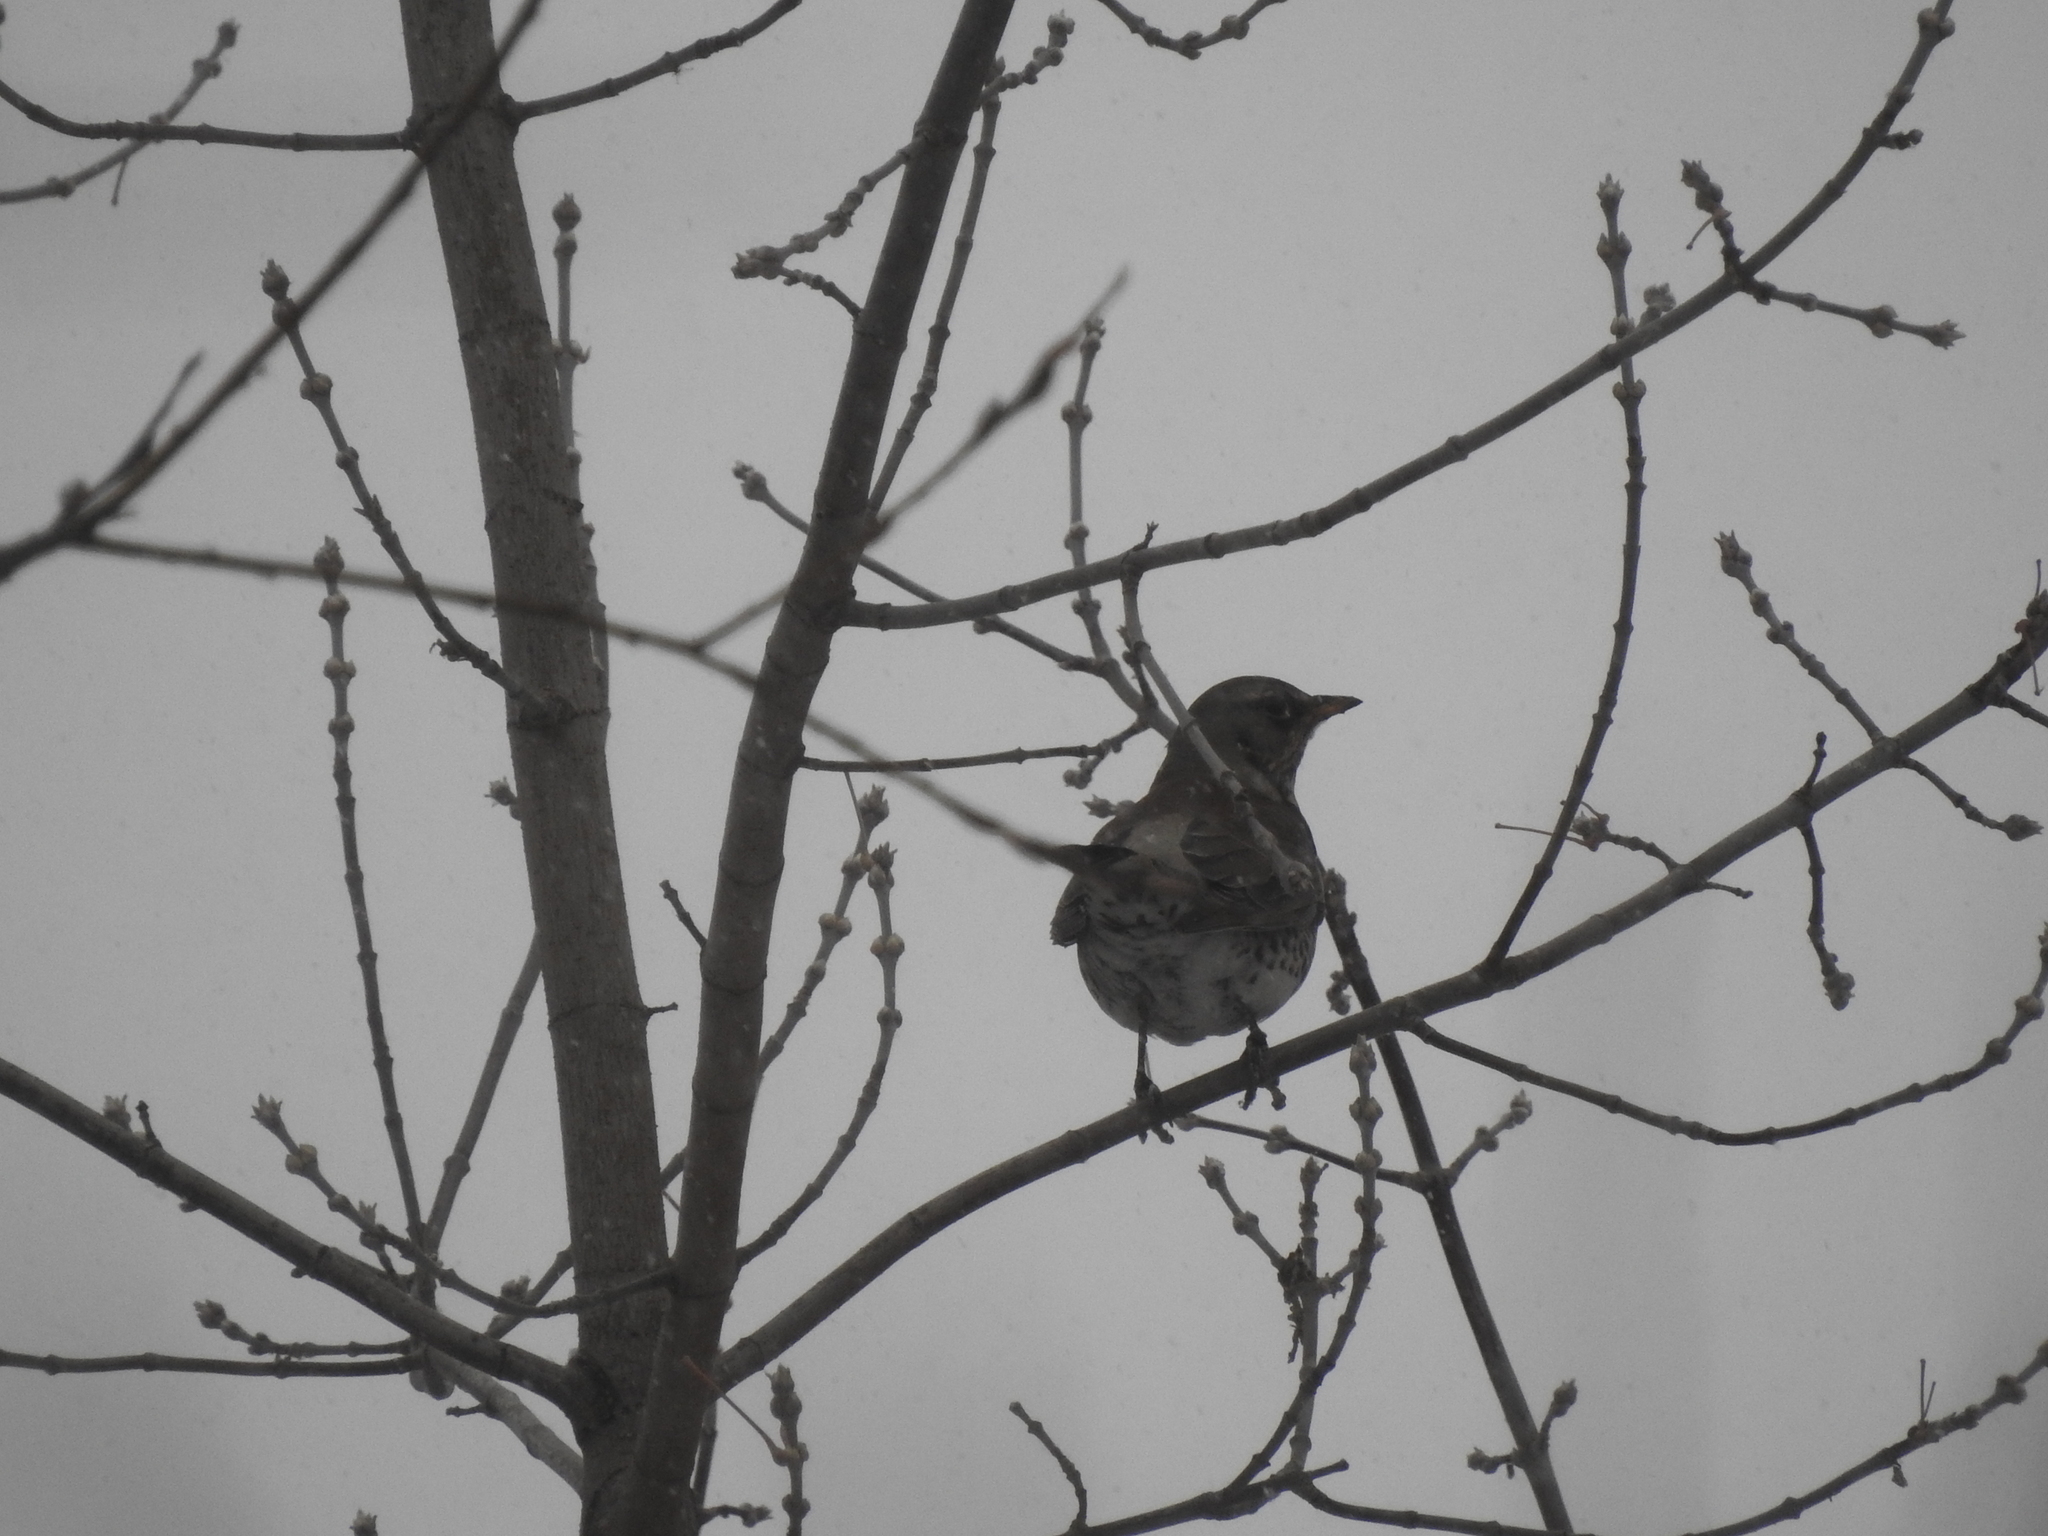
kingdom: Animalia
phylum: Chordata
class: Aves
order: Passeriformes
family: Turdidae
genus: Turdus
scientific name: Turdus pilaris
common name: Fieldfare
